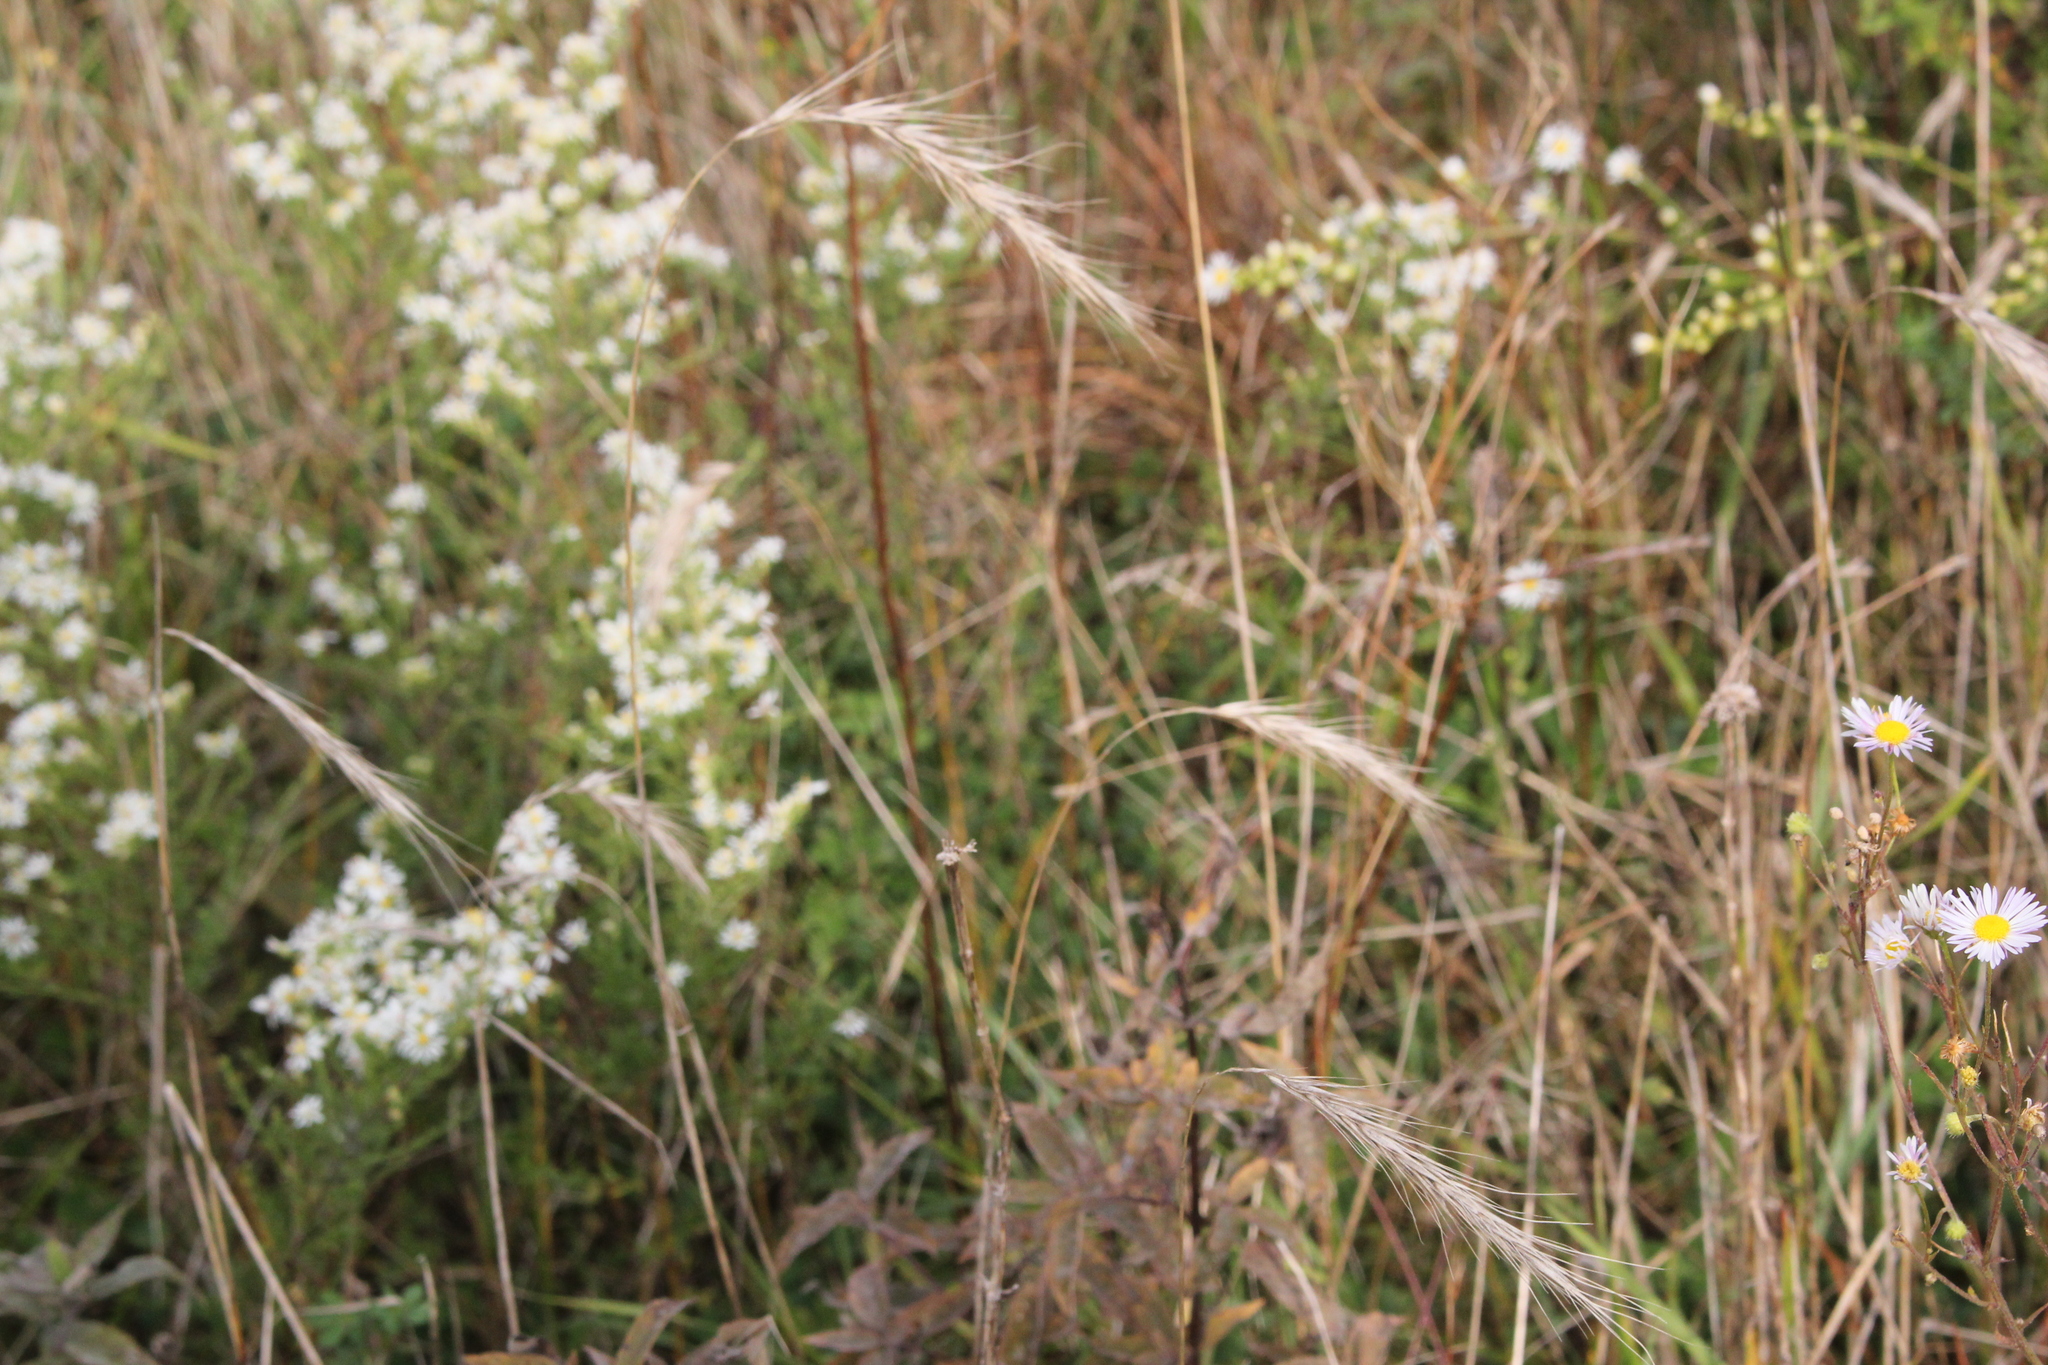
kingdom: Plantae
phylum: Tracheophyta
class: Liliopsida
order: Poales
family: Poaceae
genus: Elymus
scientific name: Elymus riparius
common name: Eastern riverbank wild rye
